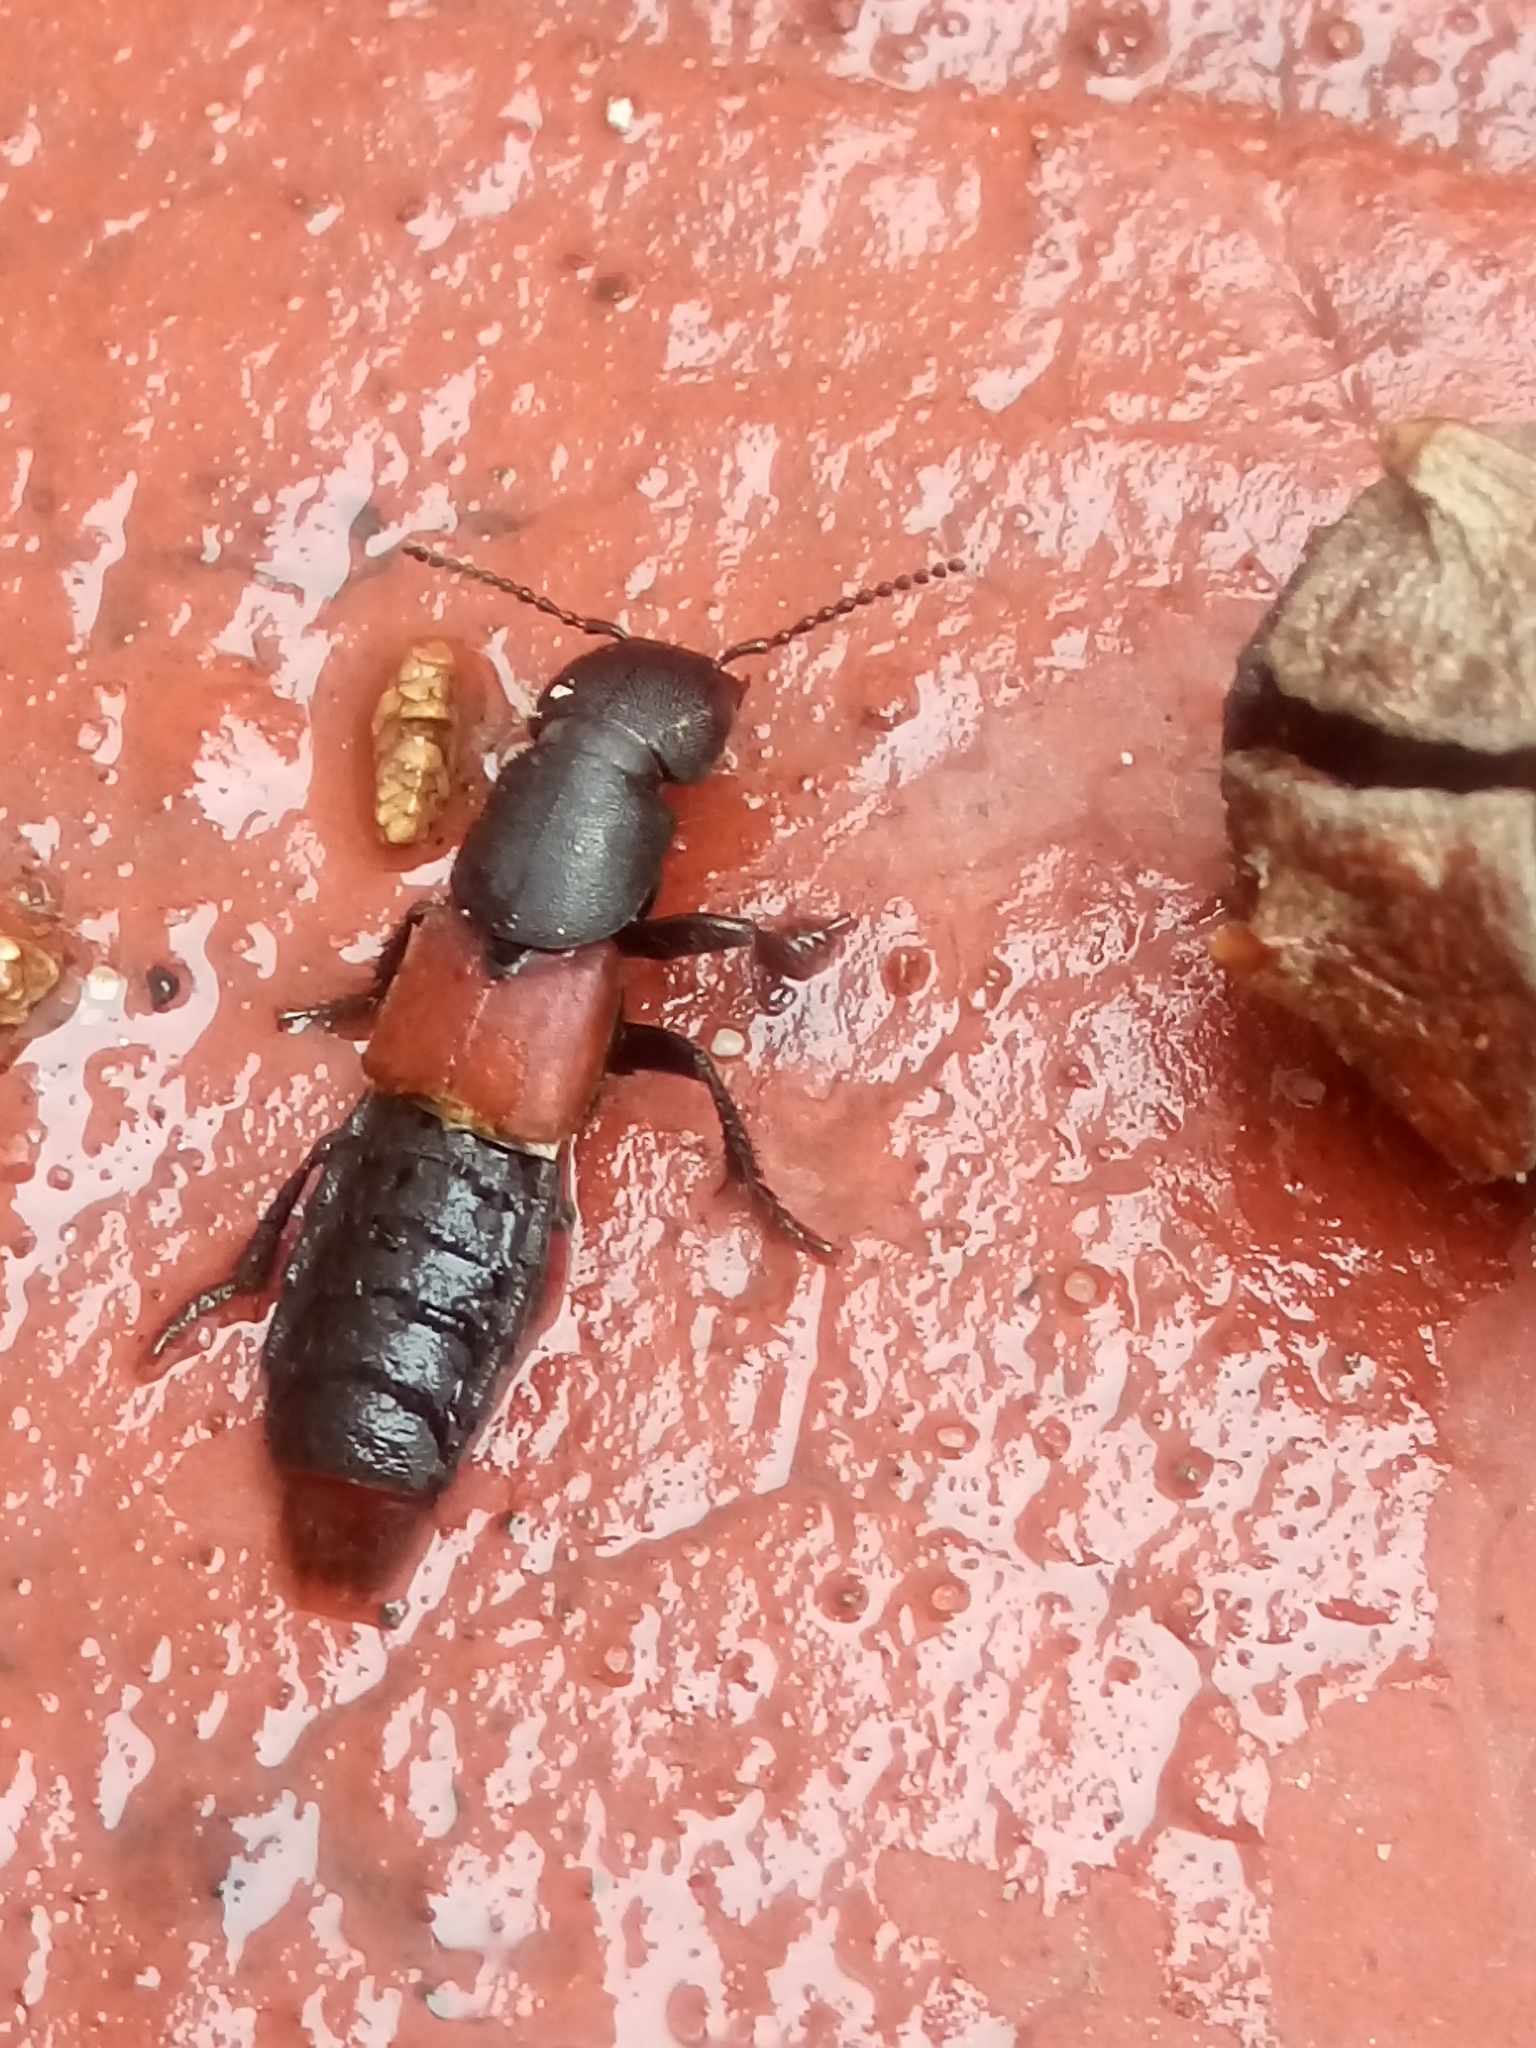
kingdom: Animalia
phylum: Arthropoda
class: Insecta
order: Coleoptera
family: Staphylinidae
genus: Platydracus
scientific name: Platydracus phoenicurus
